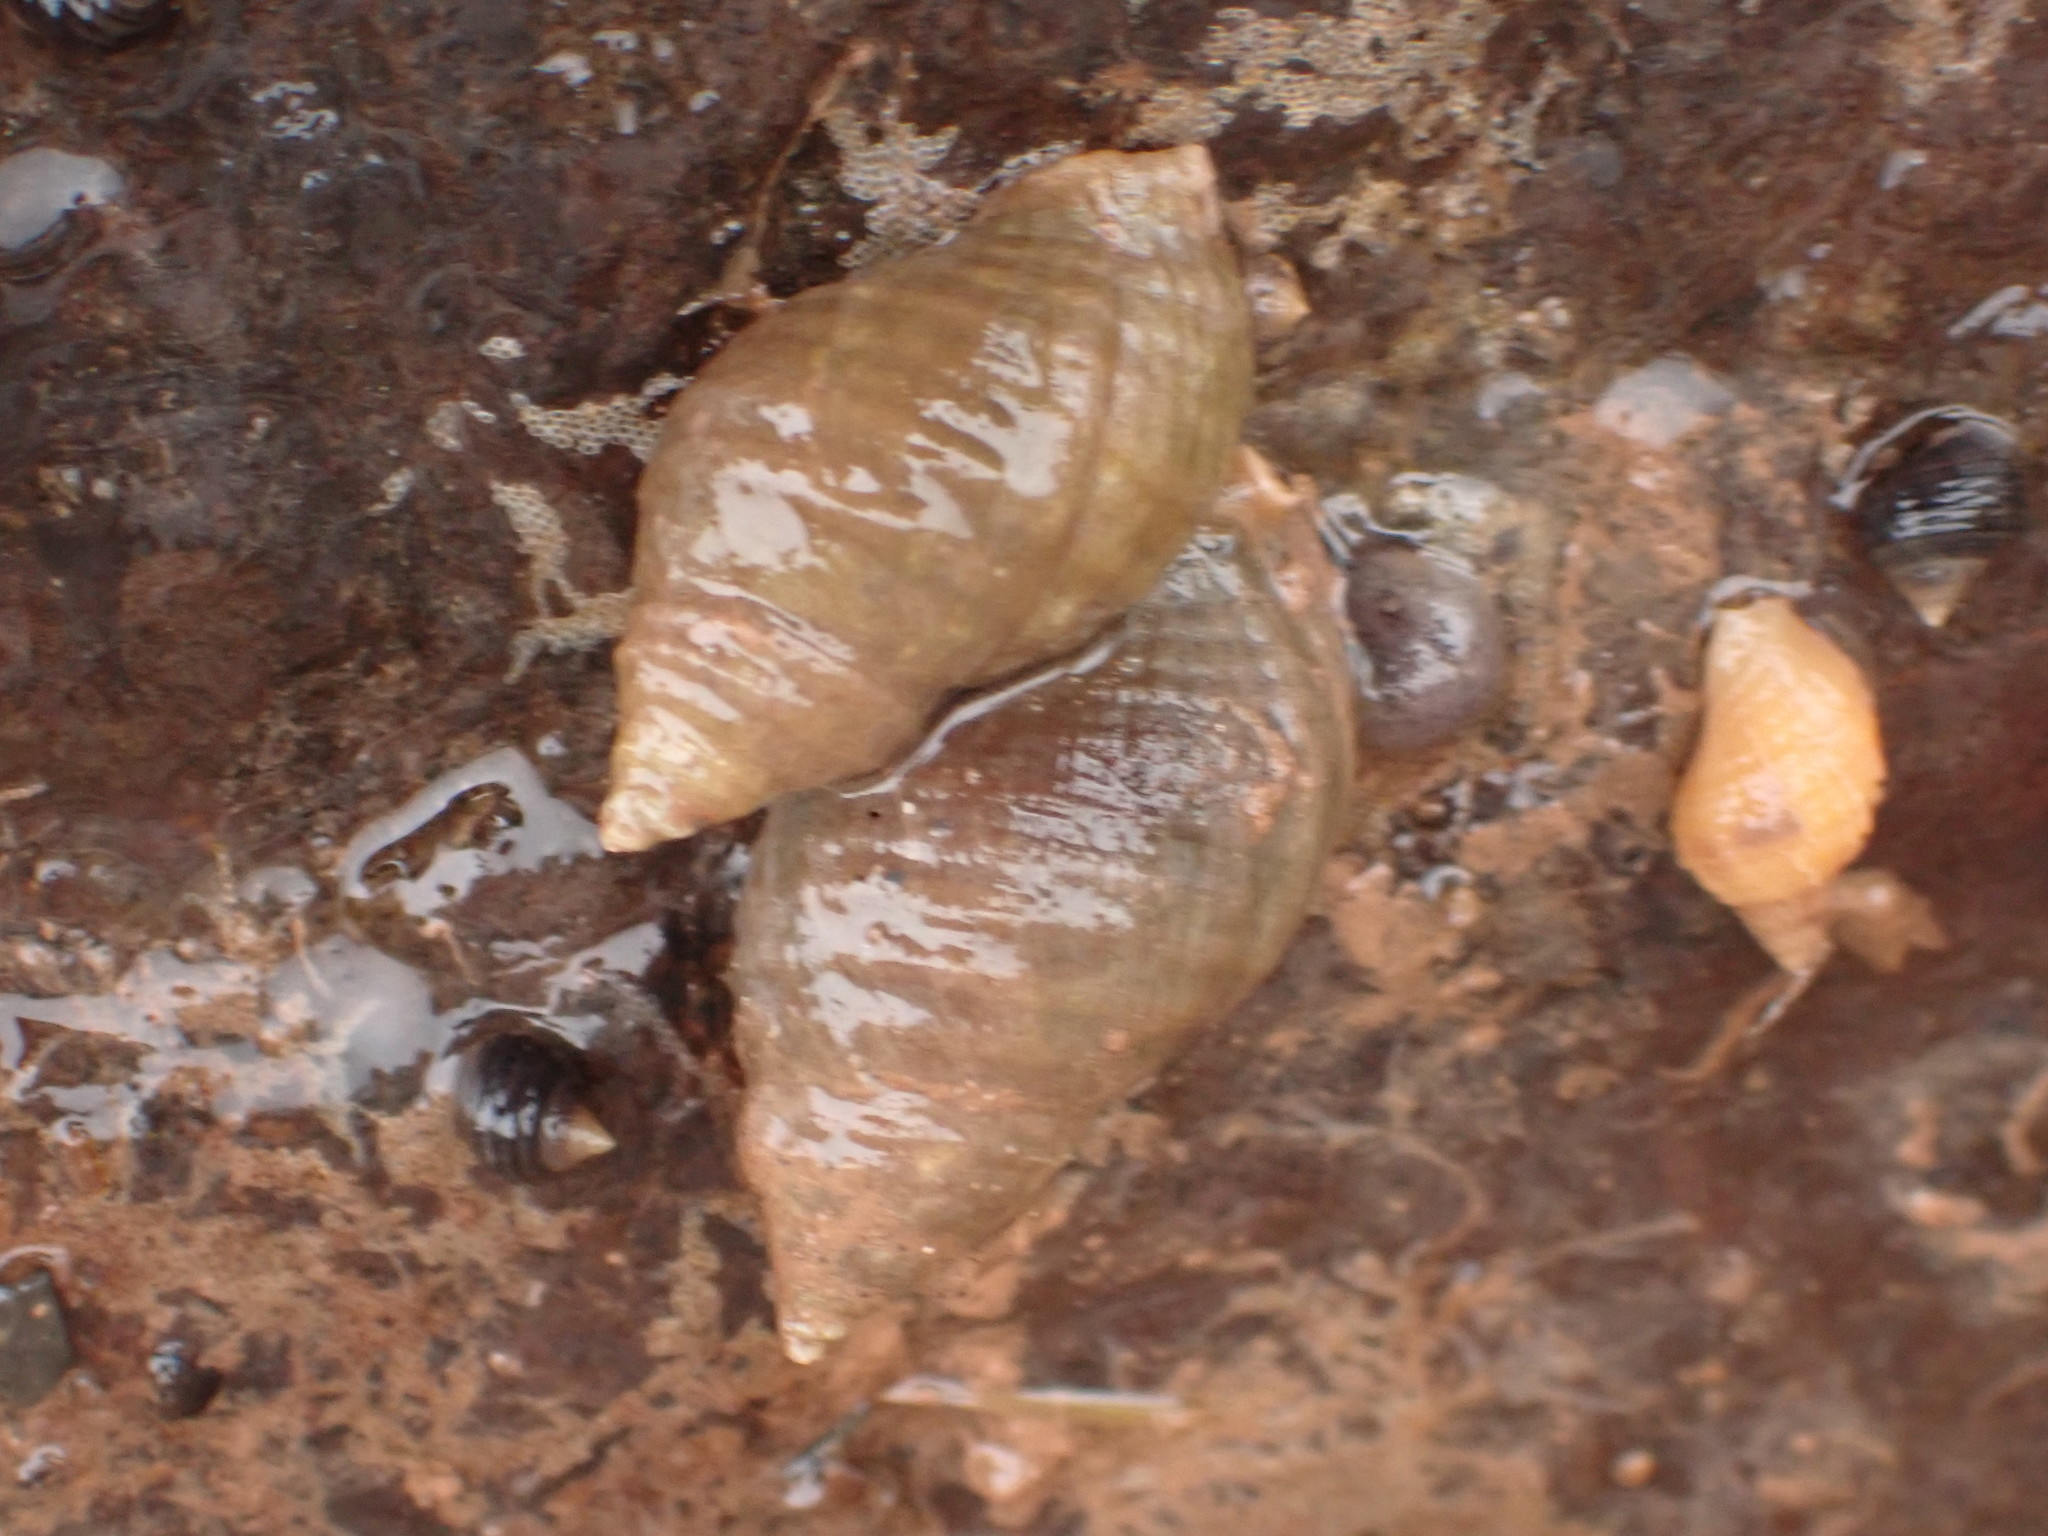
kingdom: Animalia
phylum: Mollusca
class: Gastropoda
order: Neogastropoda
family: Muricidae
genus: Nucella
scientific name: Nucella lapillus
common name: Dog whelk
